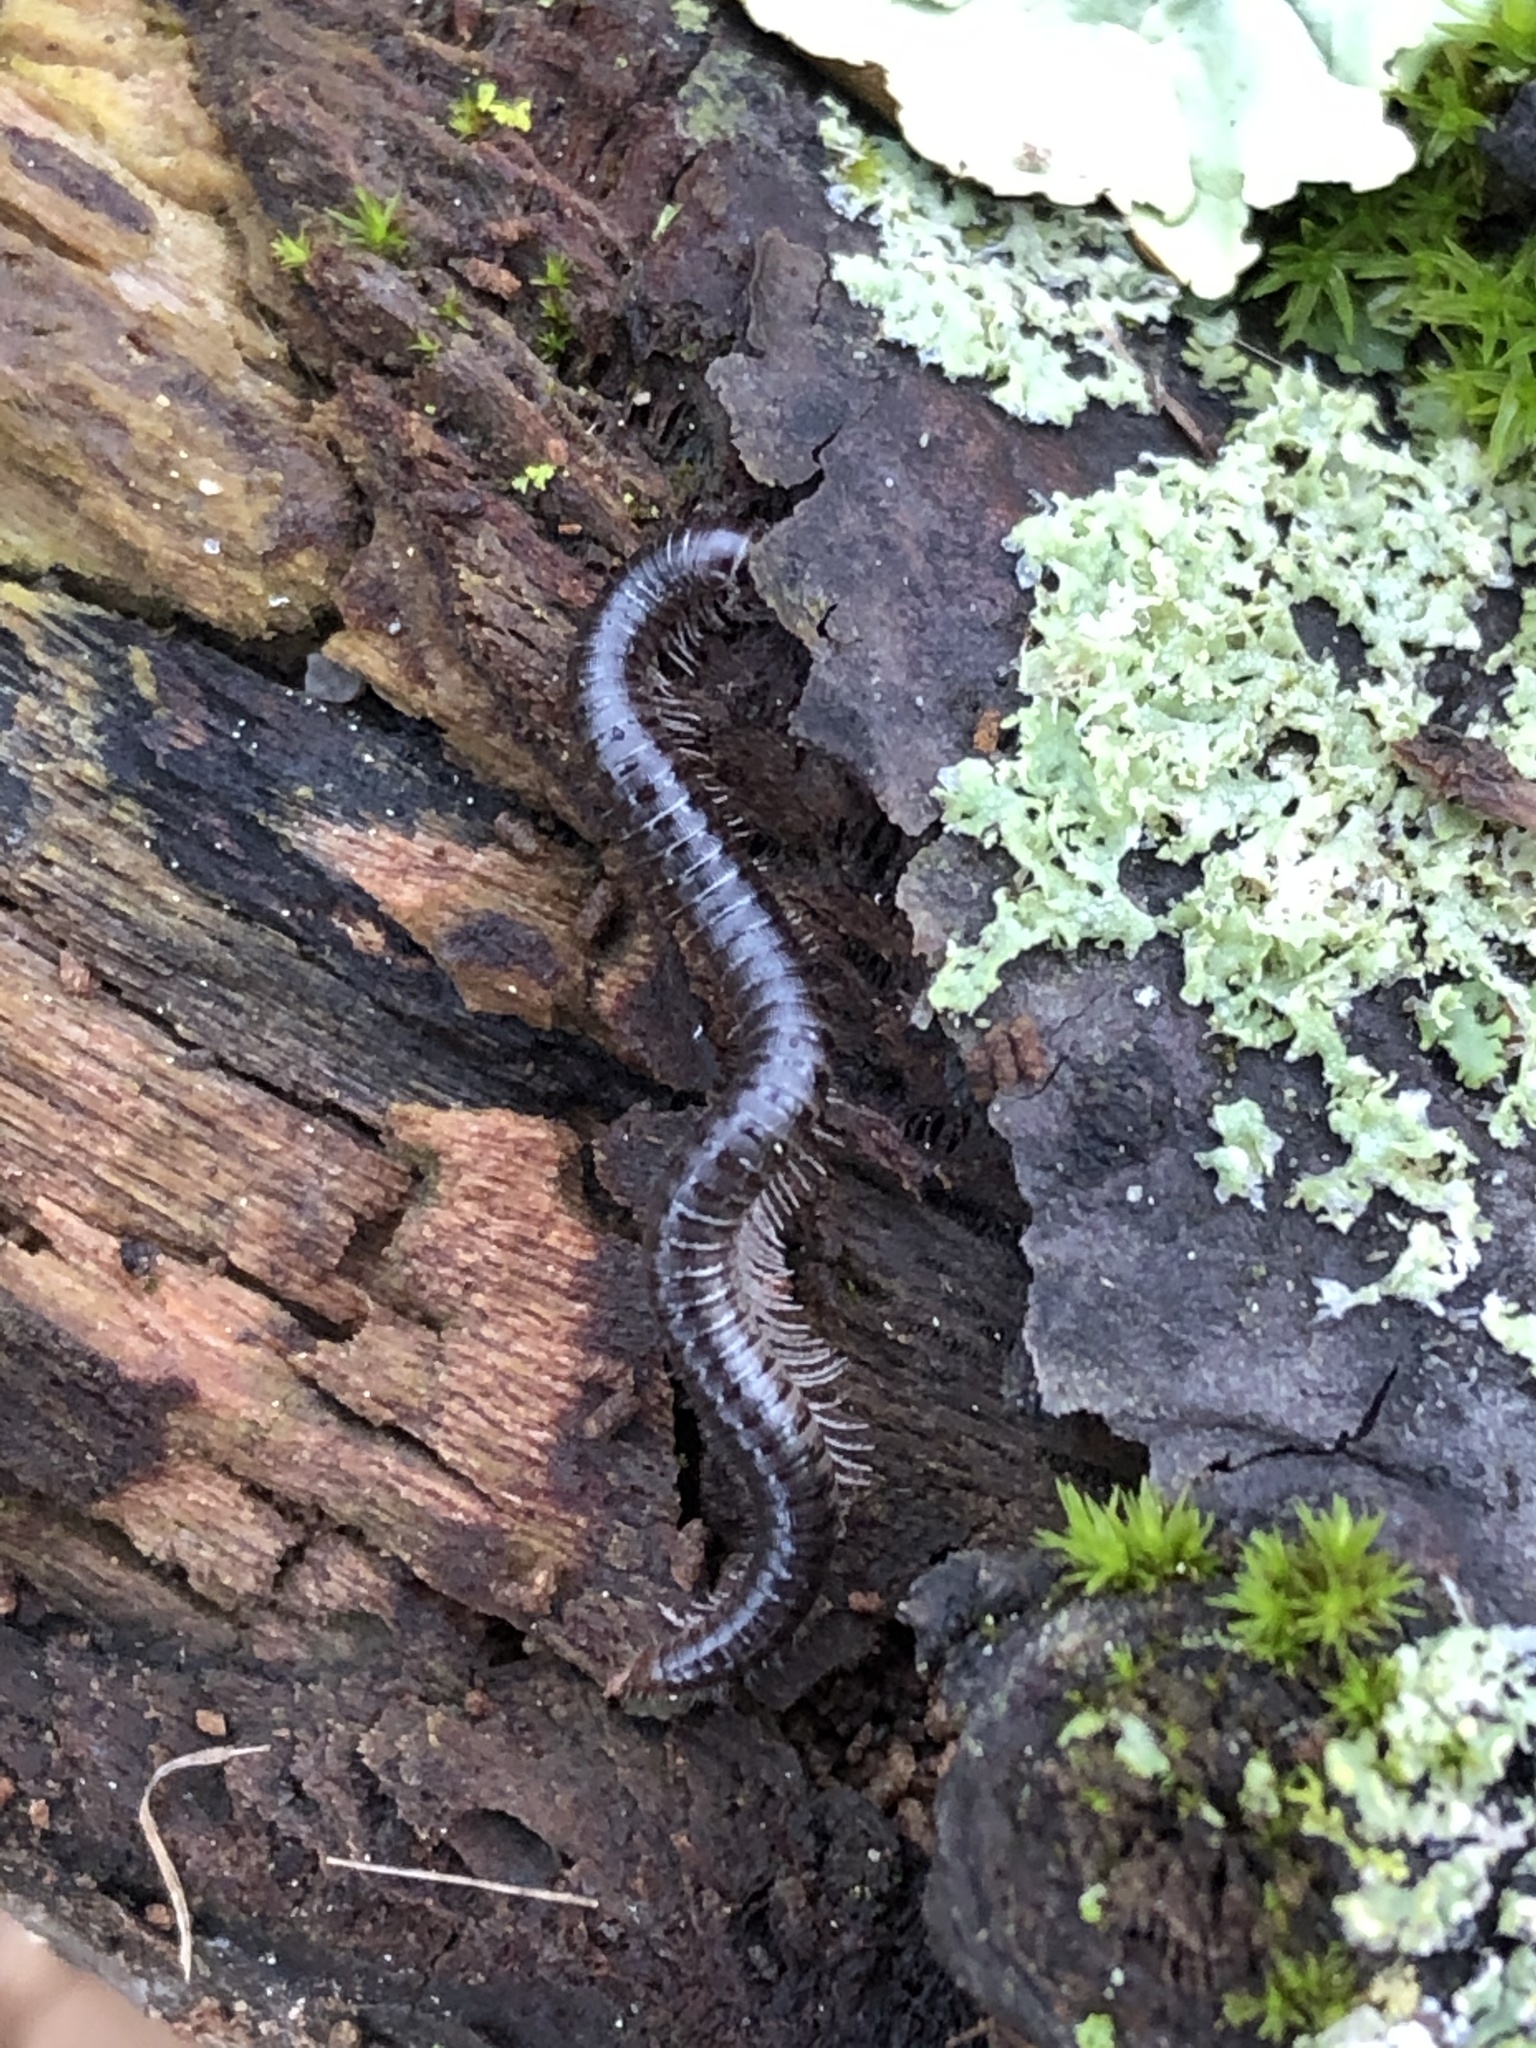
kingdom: Animalia
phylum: Arthropoda
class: Diplopoda
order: Julida
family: Julidae
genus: Ophyiulus
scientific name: Ophyiulus pilosus
